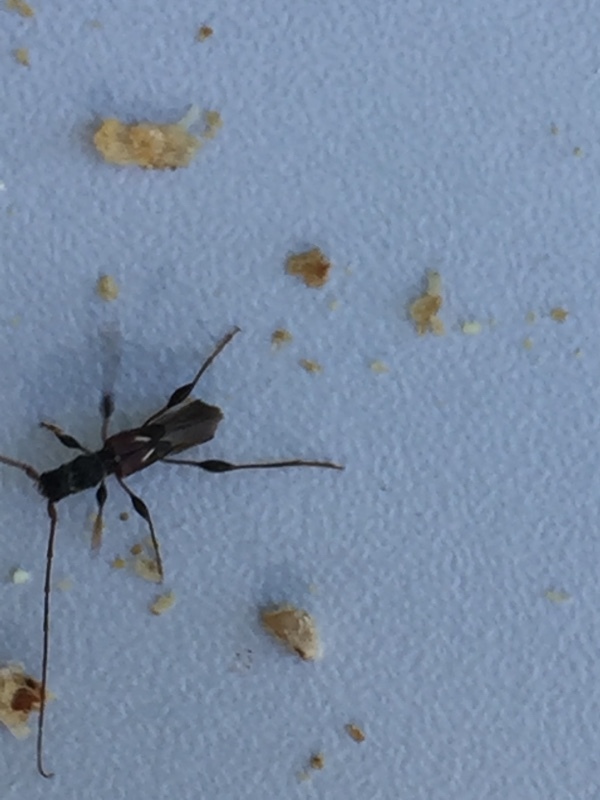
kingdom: Animalia
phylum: Arthropoda
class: Insecta
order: Coleoptera
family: Cerambycidae
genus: Molorchus
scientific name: Molorchus minor
